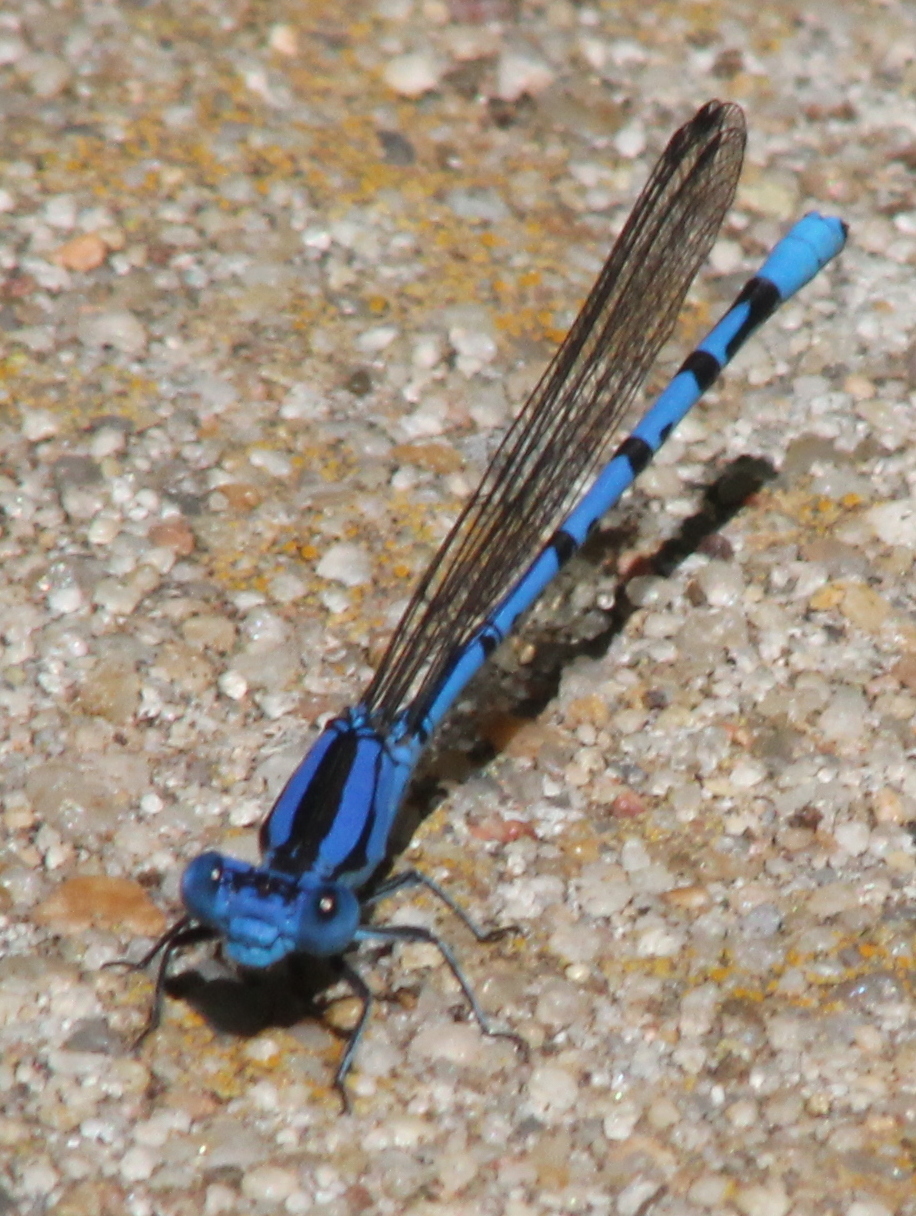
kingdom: Animalia
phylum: Arthropoda
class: Insecta
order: Odonata
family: Coenagrionidae
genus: Argia
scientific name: Argia funebris
